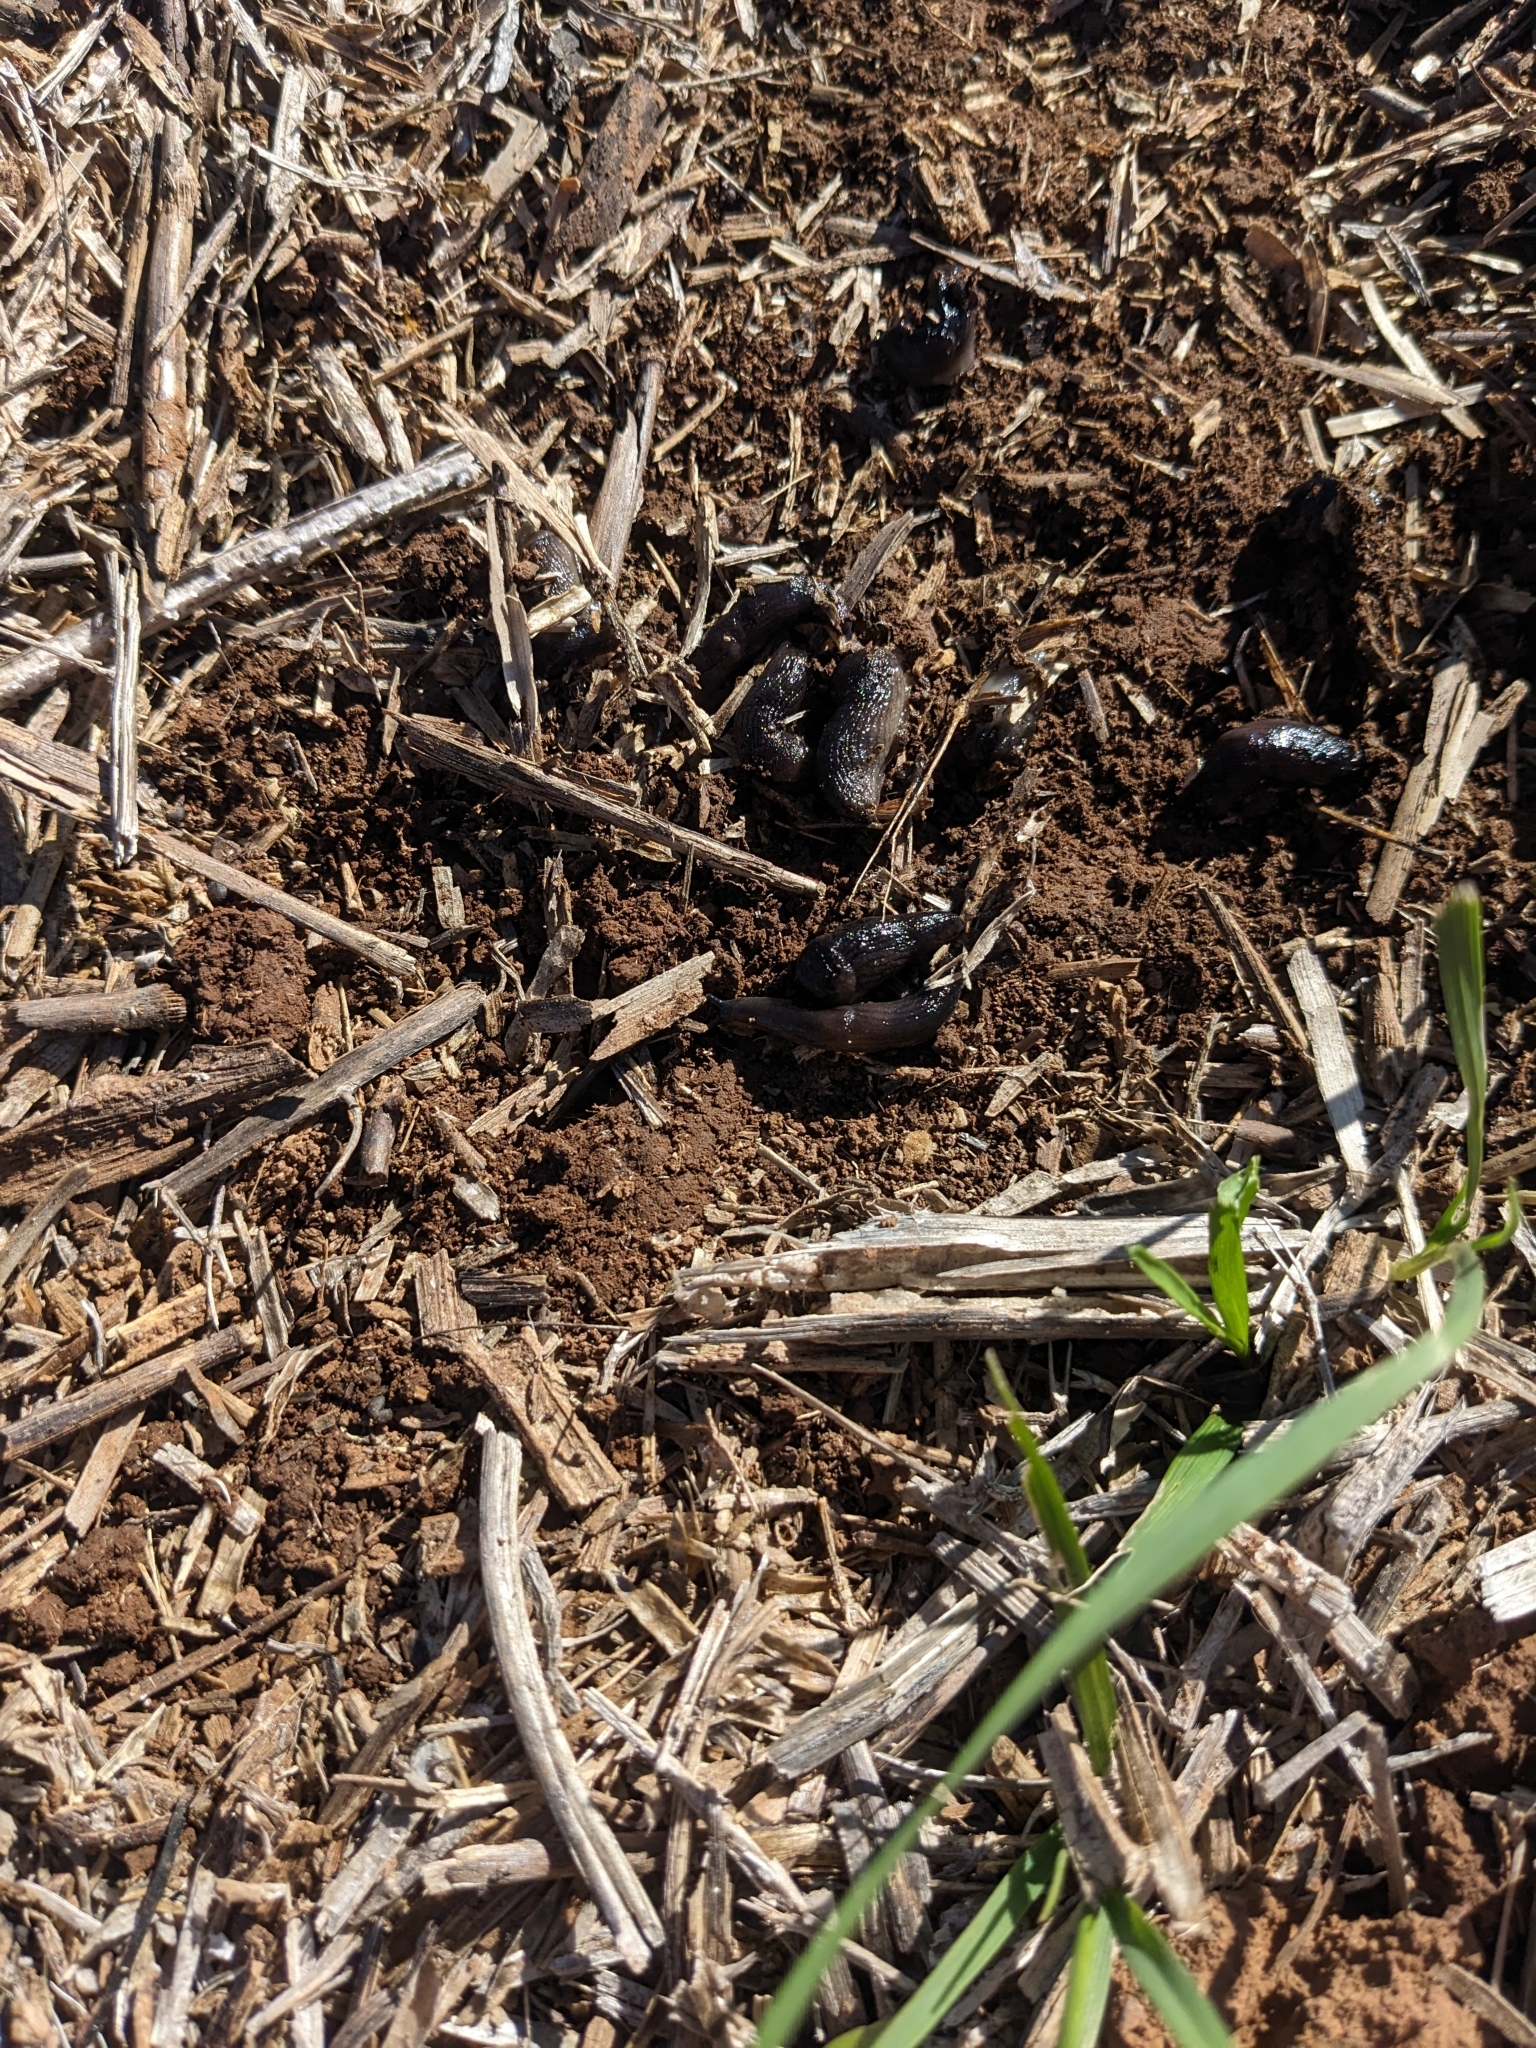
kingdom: Animalia
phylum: Mollusca
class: Gastropoda
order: Stylommatophora
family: Milacidae
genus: Milax
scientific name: Milax gagates
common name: Greenhouse slug
